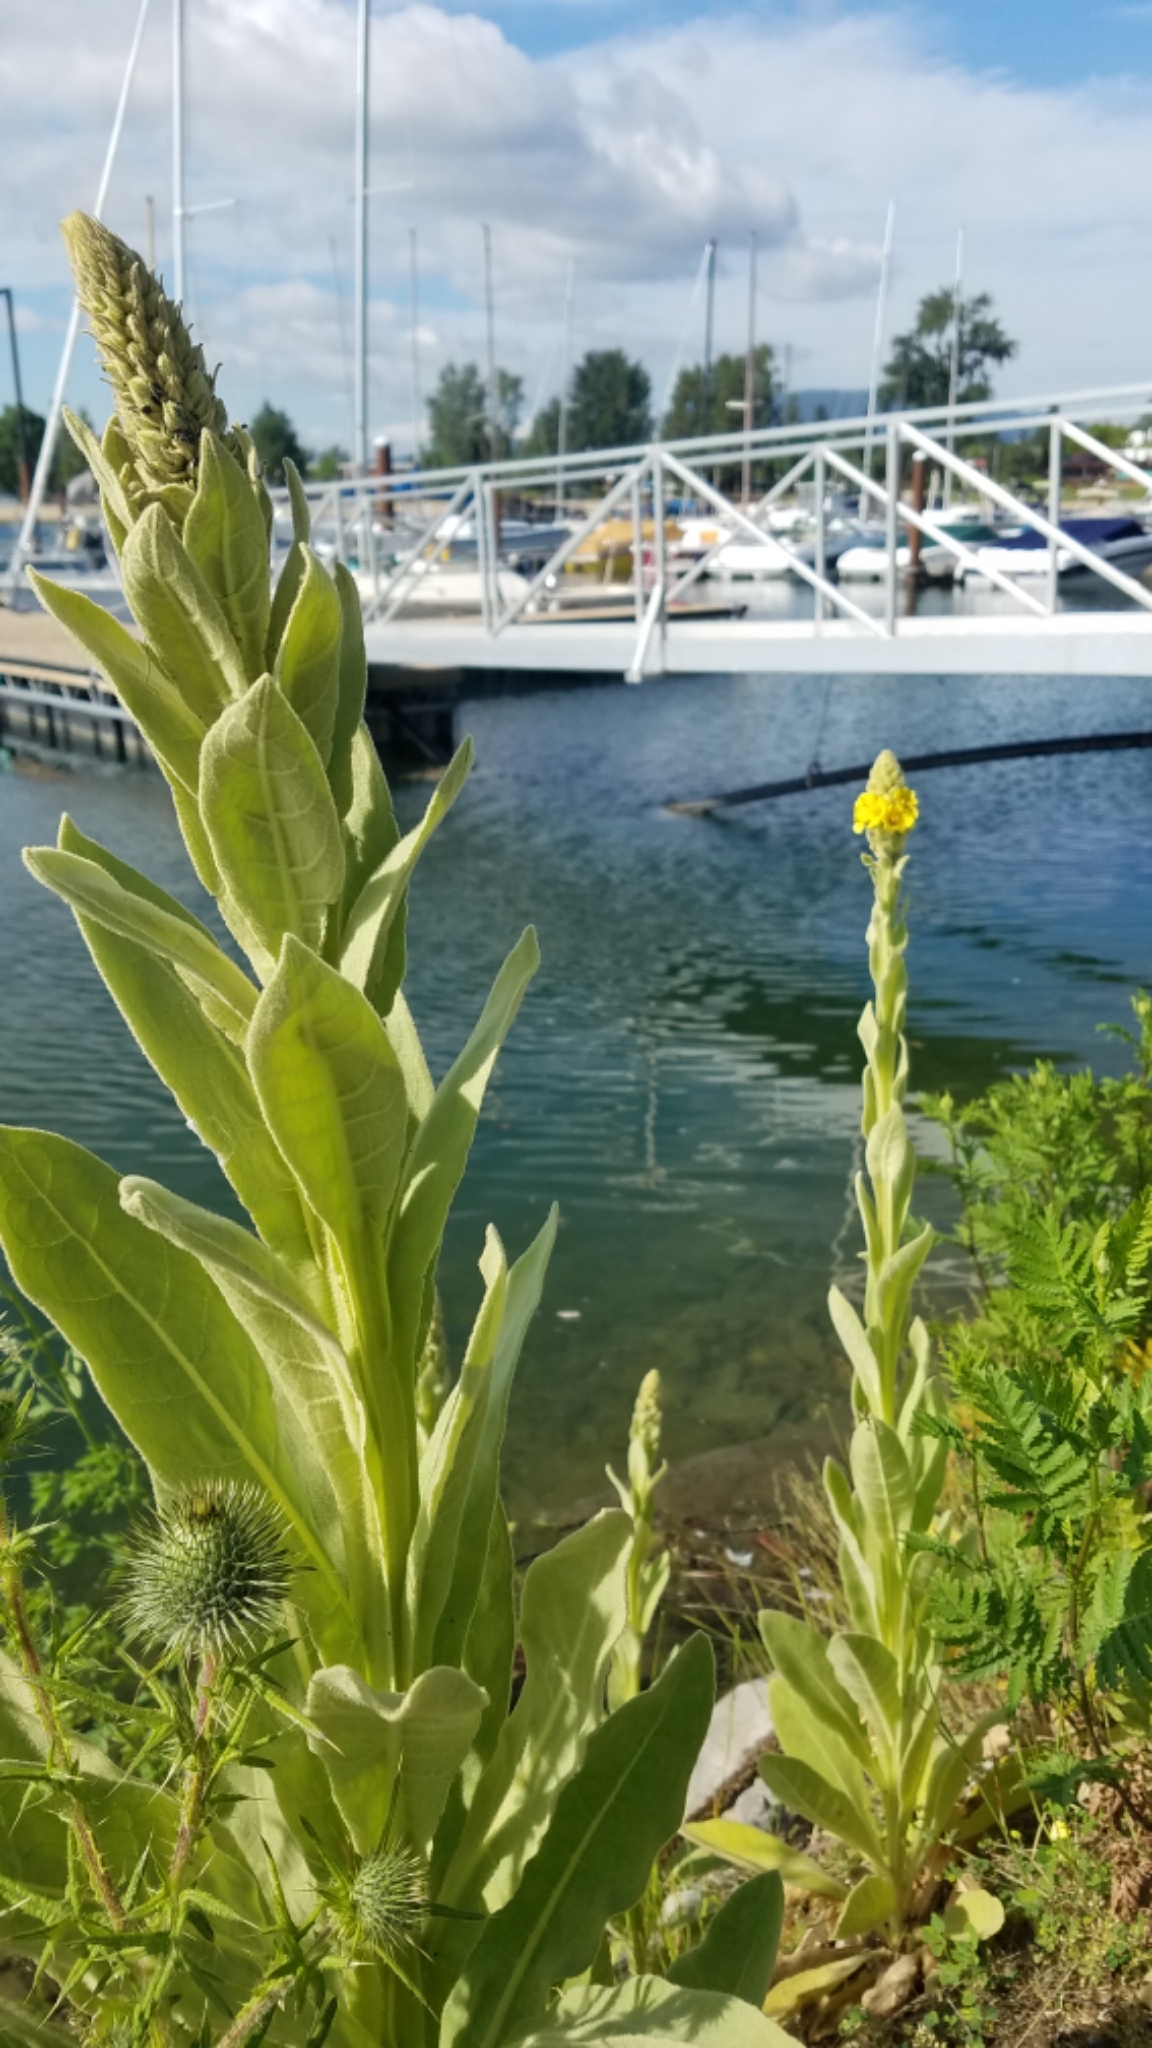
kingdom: Plantae
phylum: Tracheophyta
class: Magnoliopsida
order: Lamiales
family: Scrophulariaceae
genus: Verbascum
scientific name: Verbascum thapsus
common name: Common mullein
